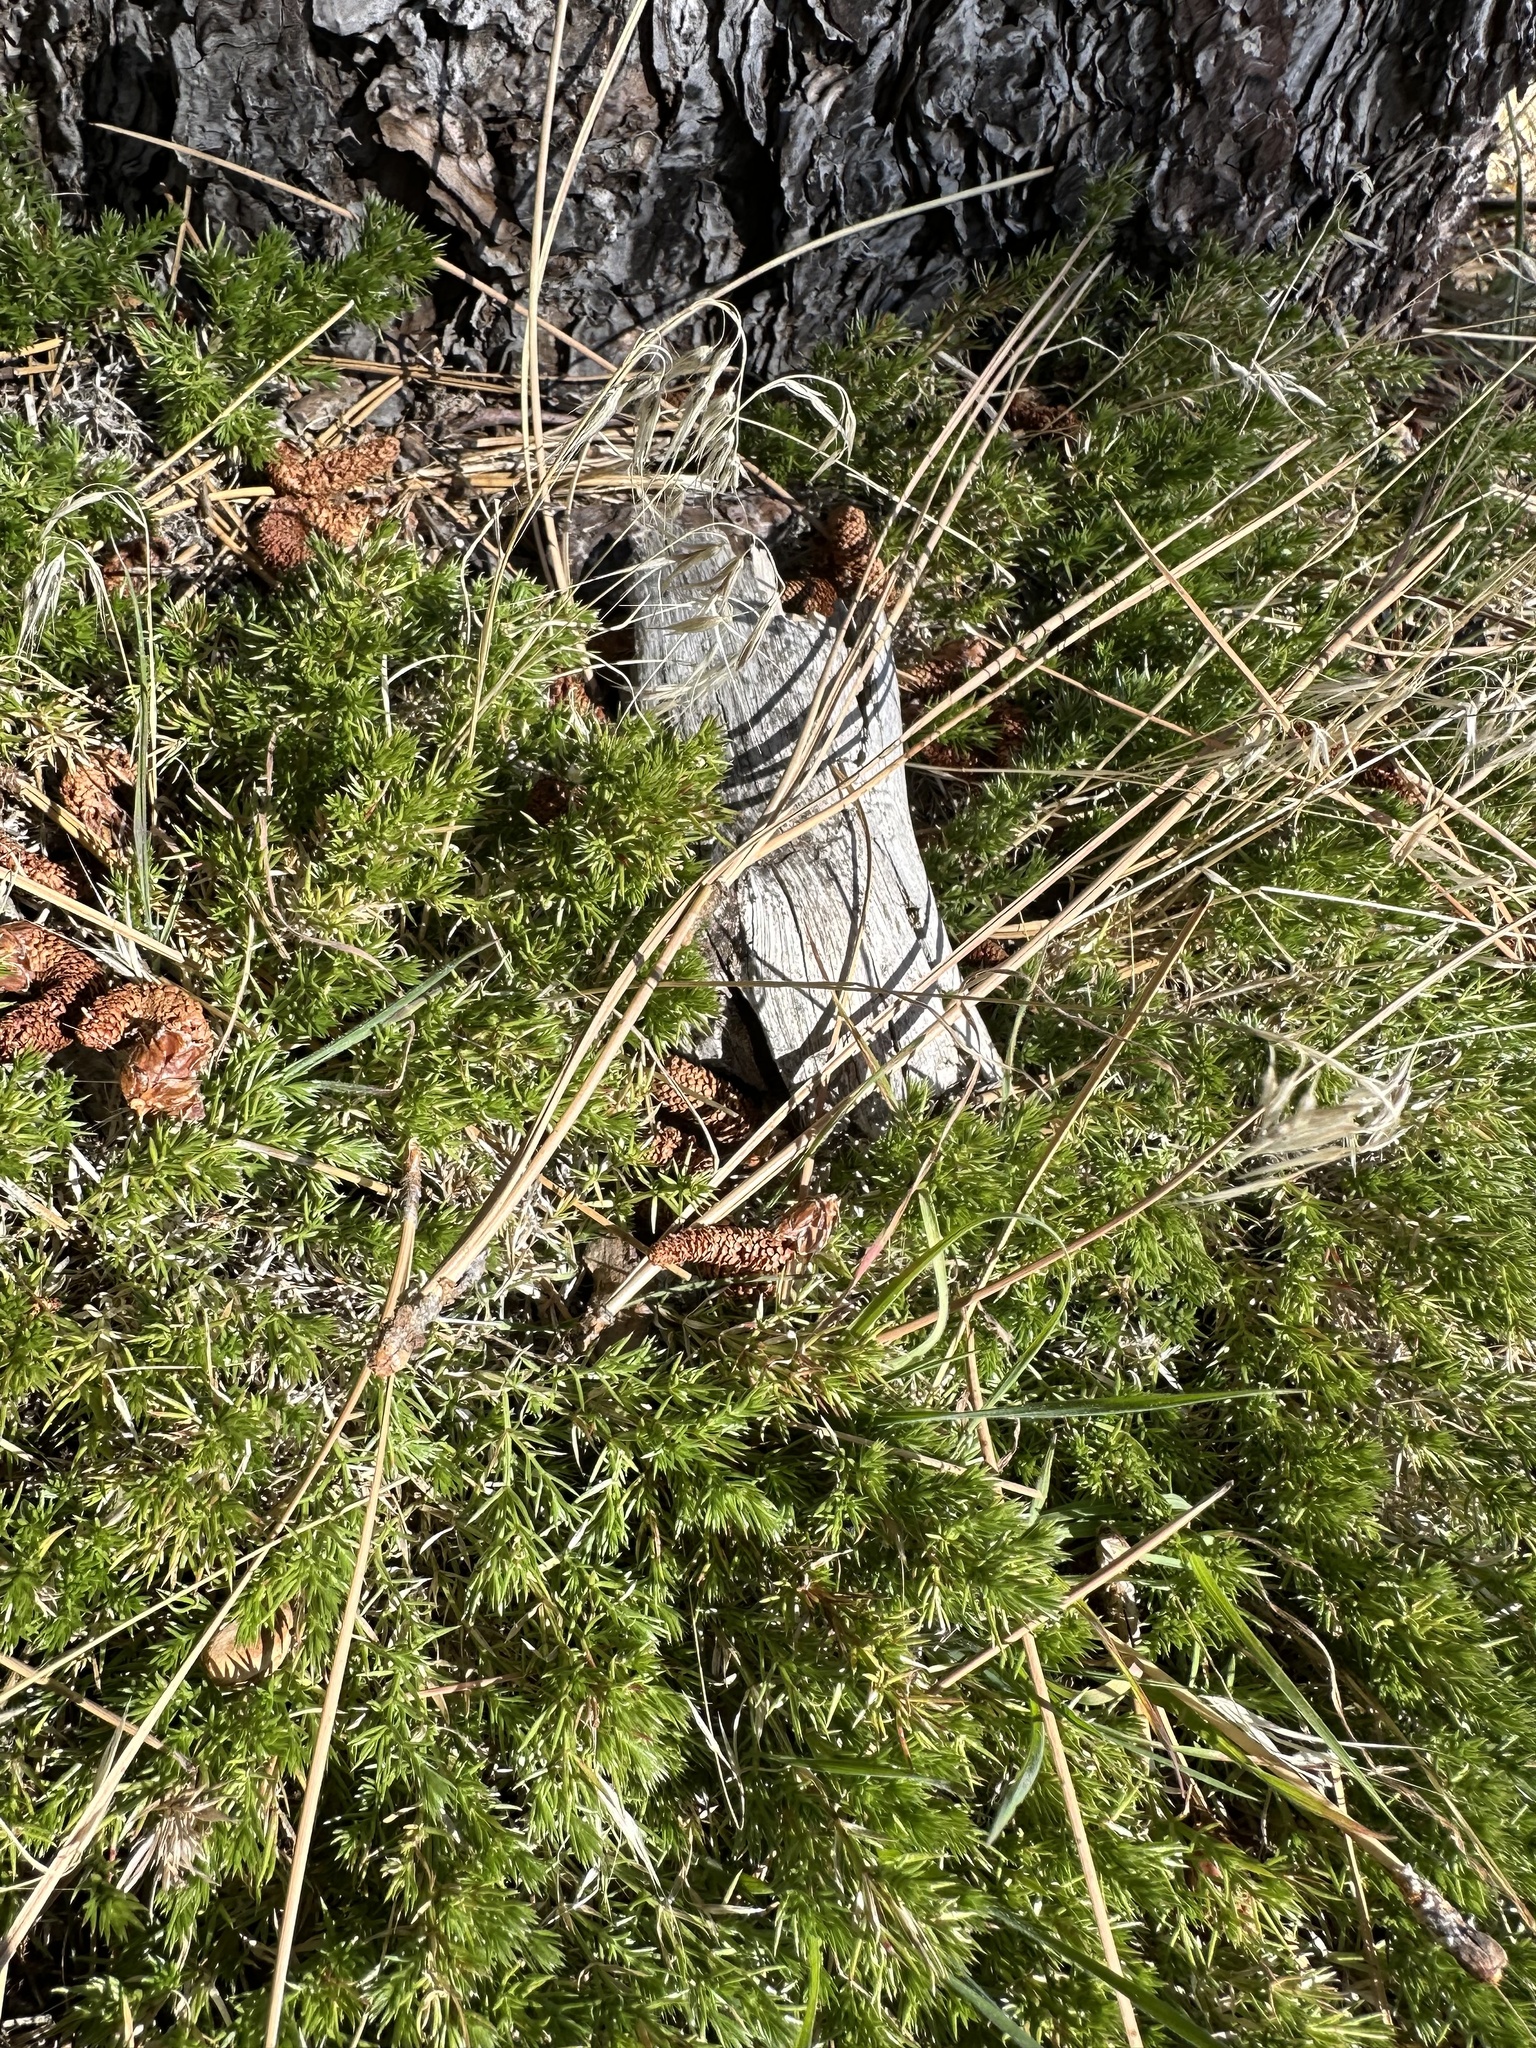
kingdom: Plantae
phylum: Tracheophyta
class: Magnoliopsida
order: Gentianales
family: Rubiaceae
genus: Galium
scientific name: Galium andrewsii
